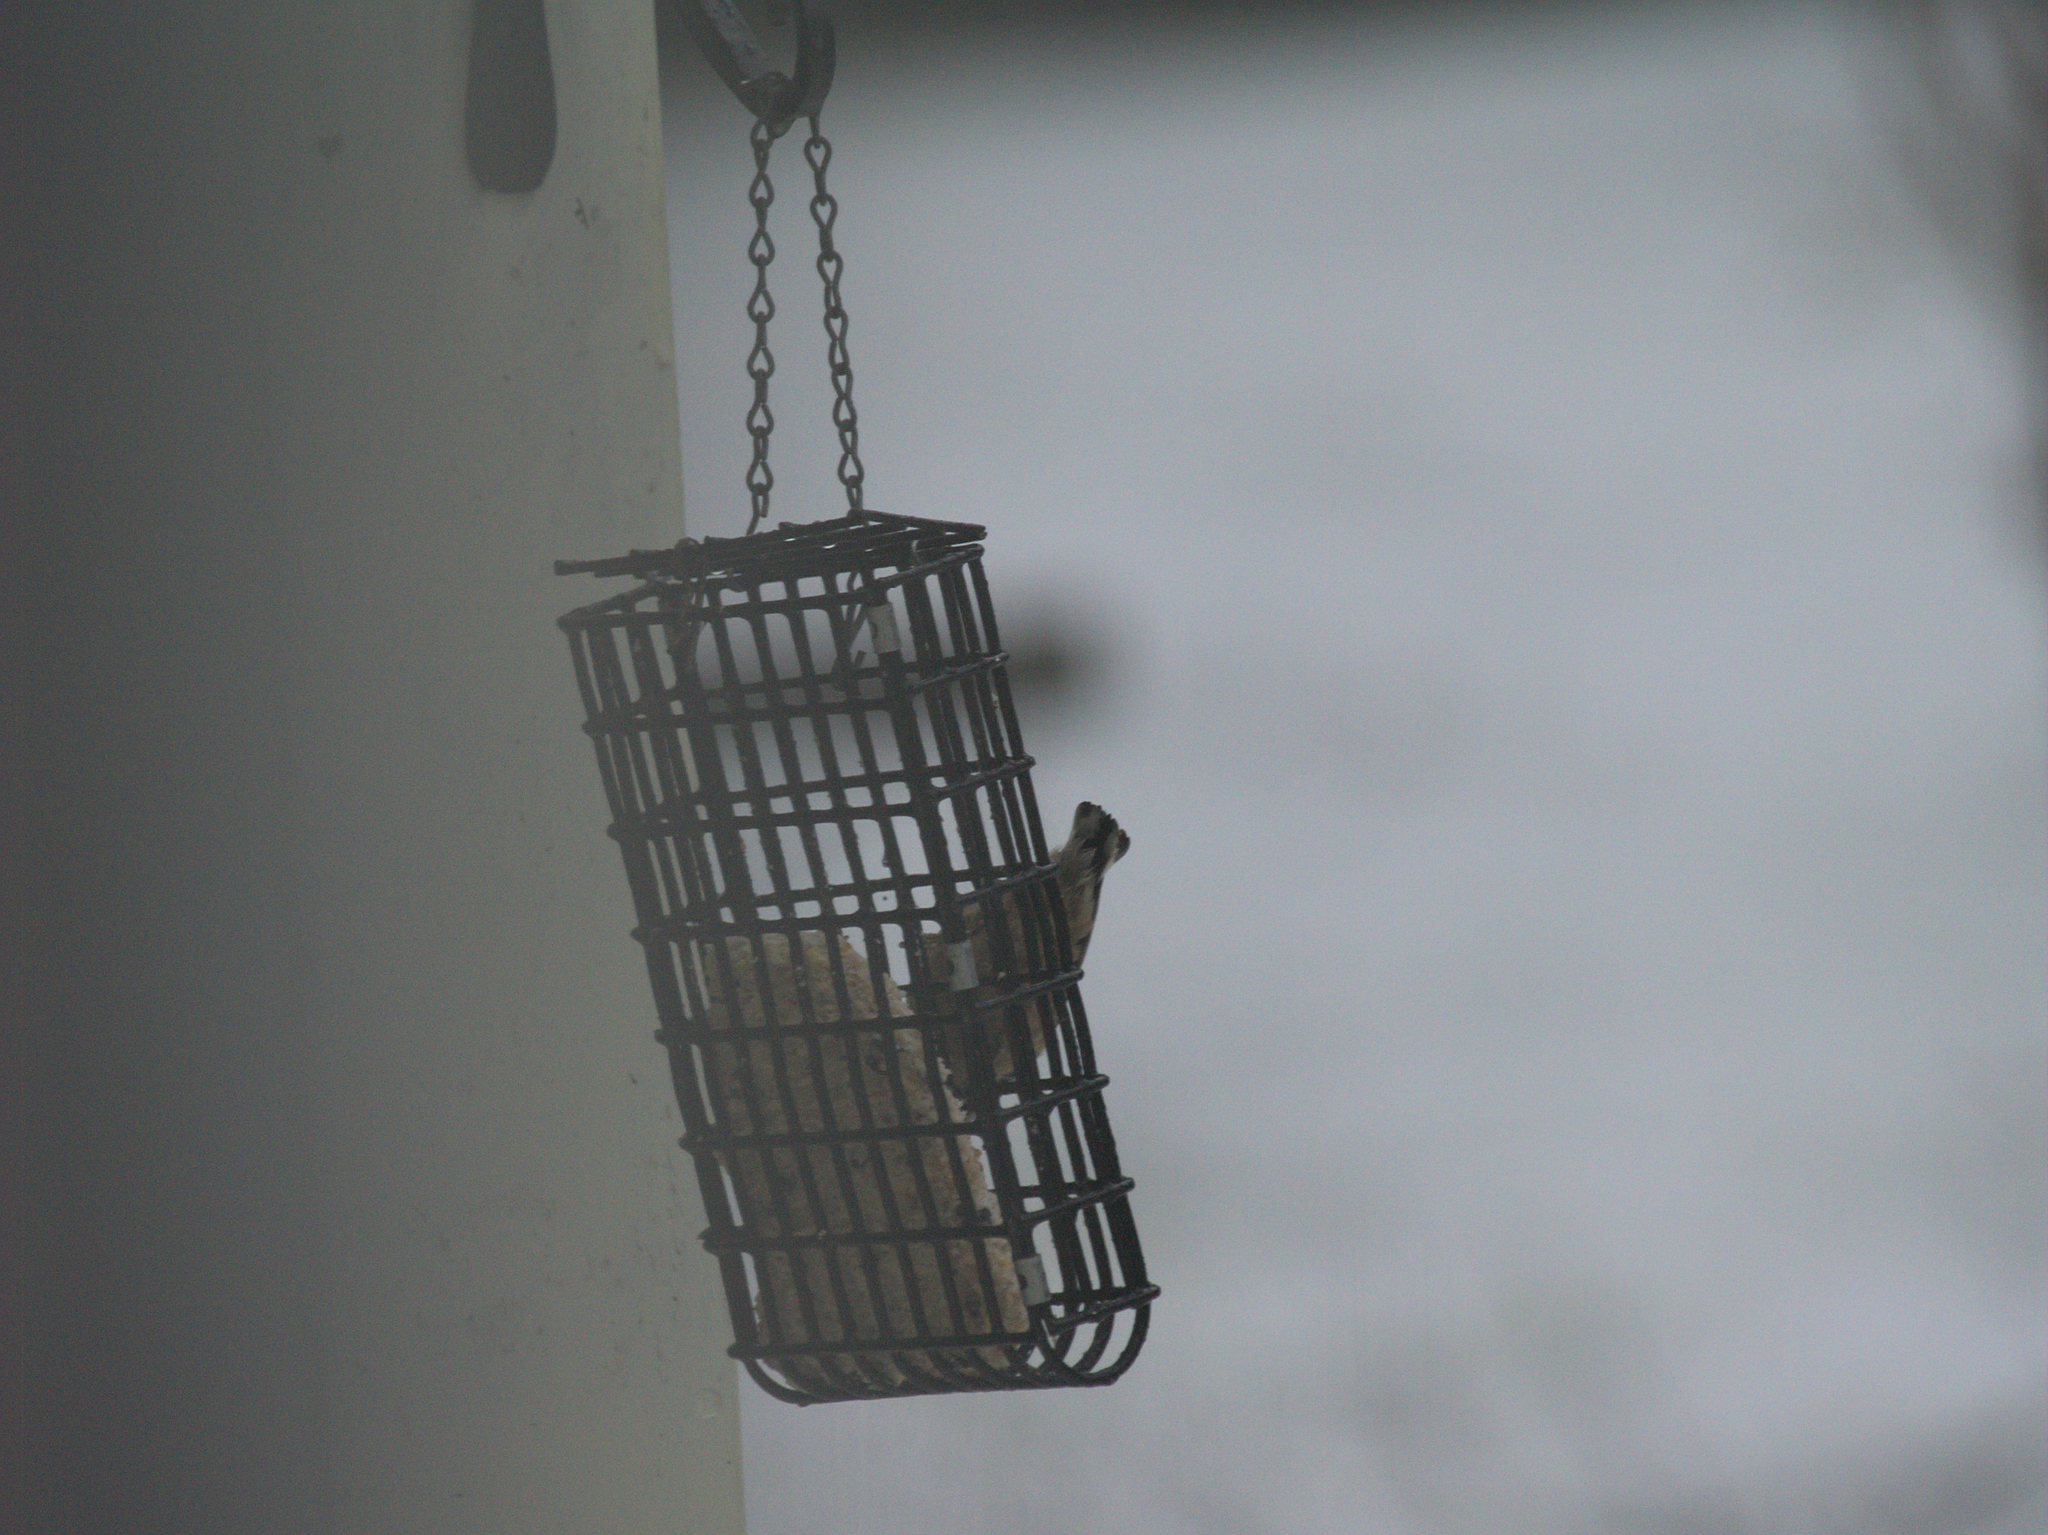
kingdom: Animalia
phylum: Chordata
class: Aves
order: Passeriformes
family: Sittidae
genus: Sitta
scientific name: Sitta canadensis
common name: Red-breasted nuthatch
